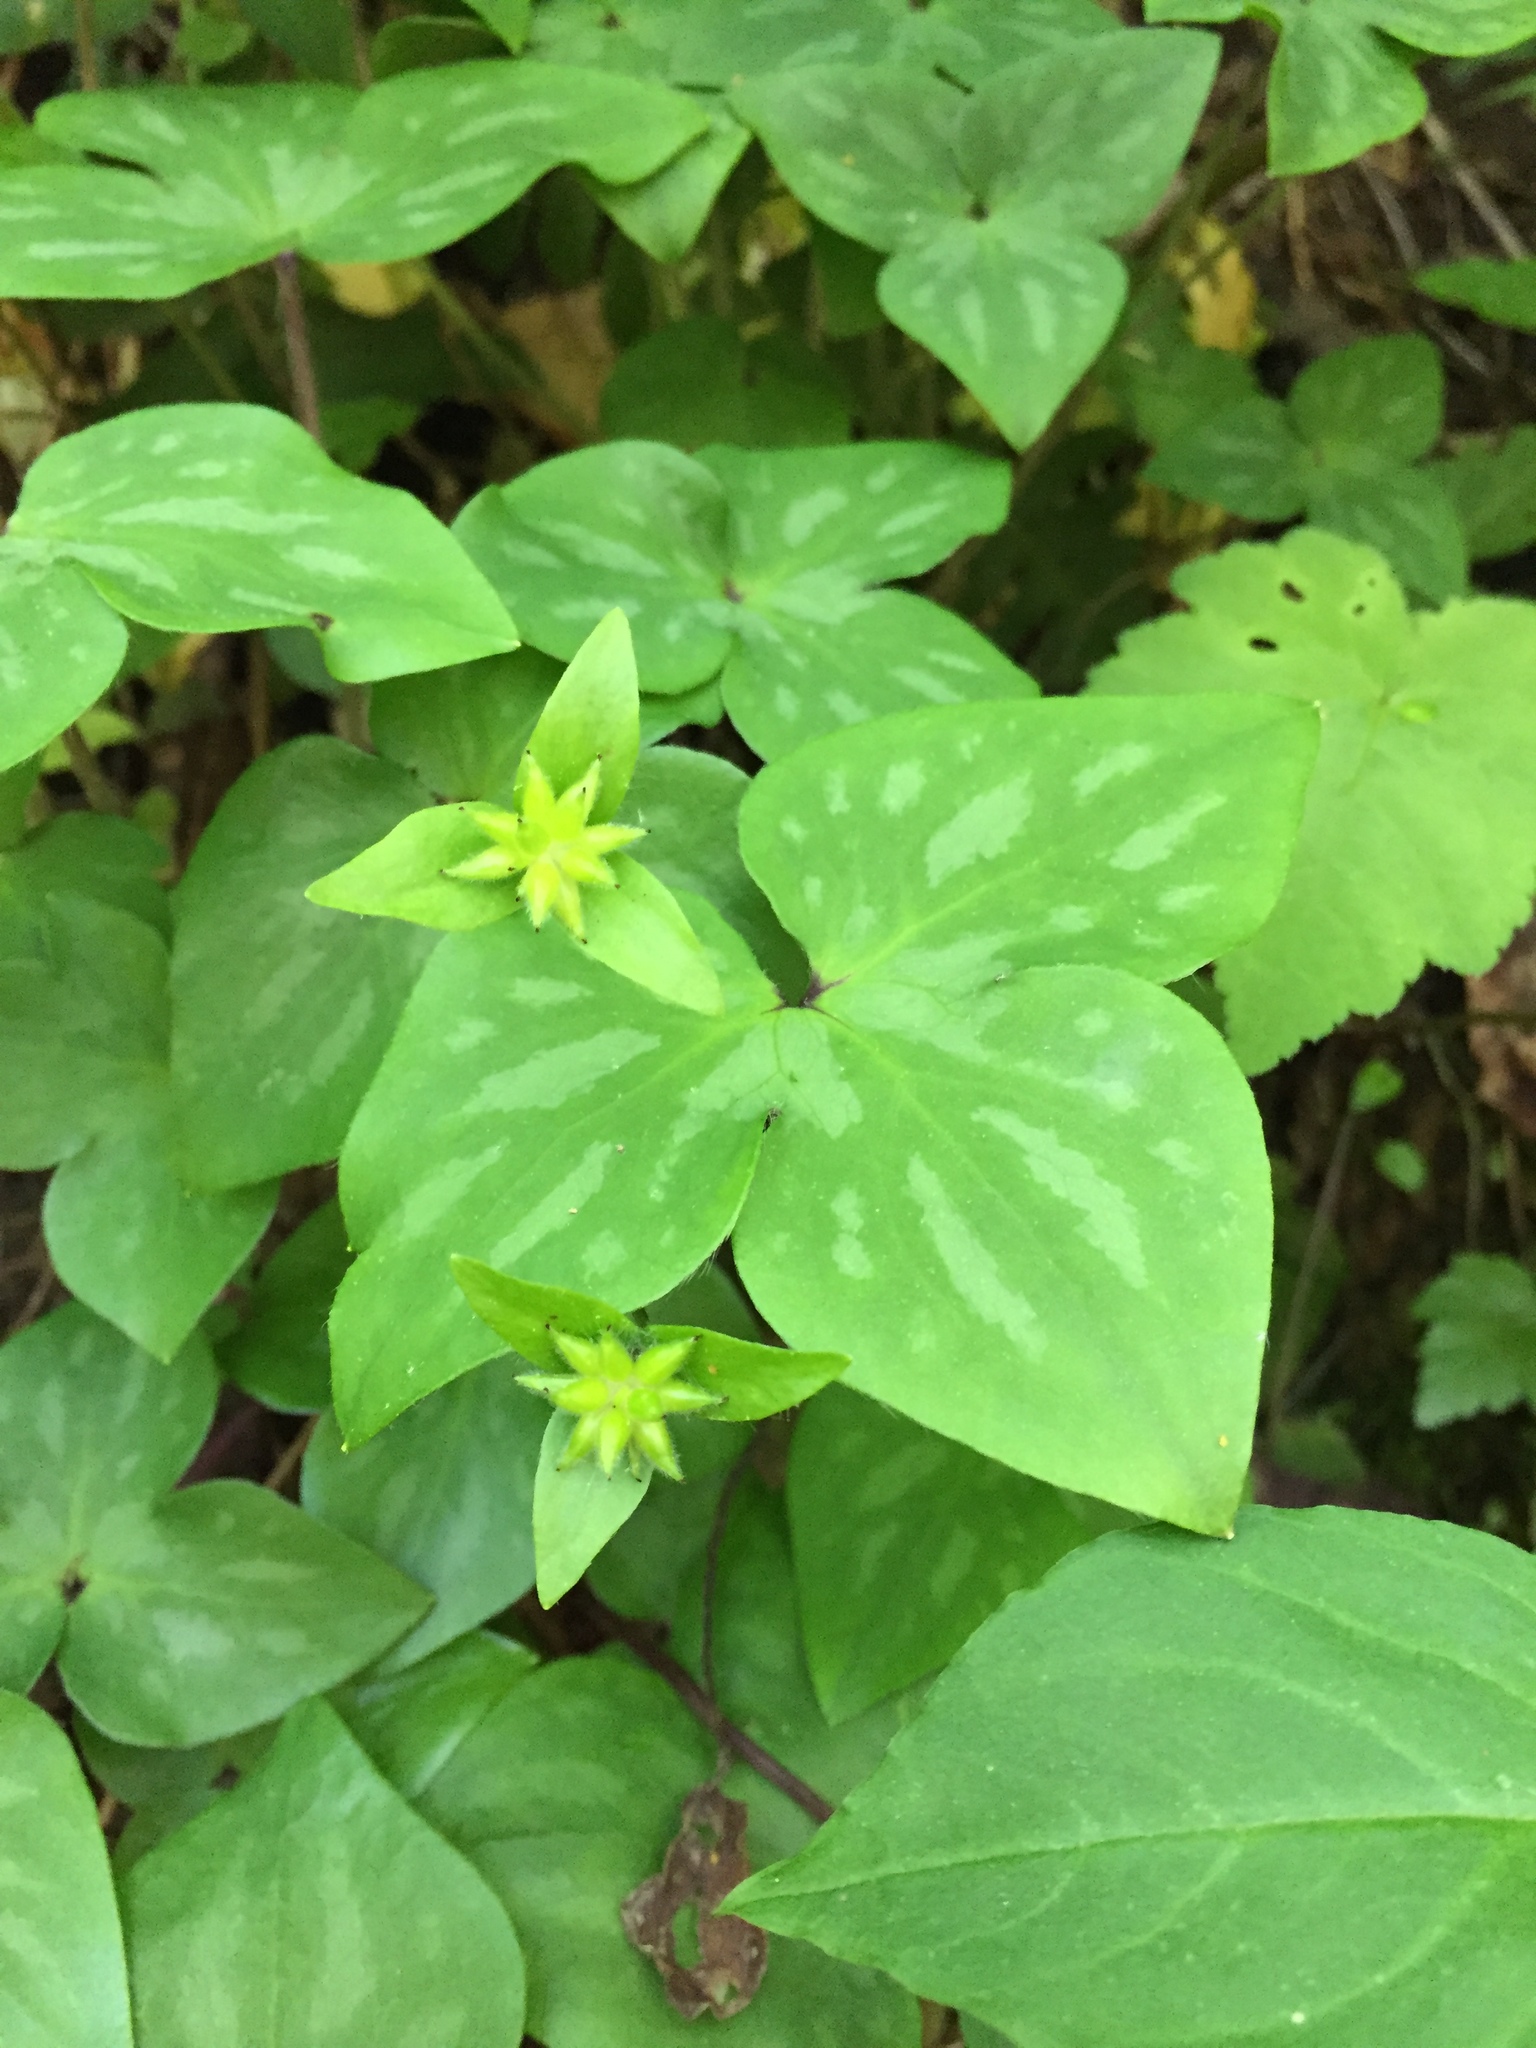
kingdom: Plantae
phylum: Tracheophyta
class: Magnoliopsida
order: Ranunculales
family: Ranunculaceae
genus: Hepatica
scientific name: Hepatica acutiloba
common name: Sharp-lobed hepatica
